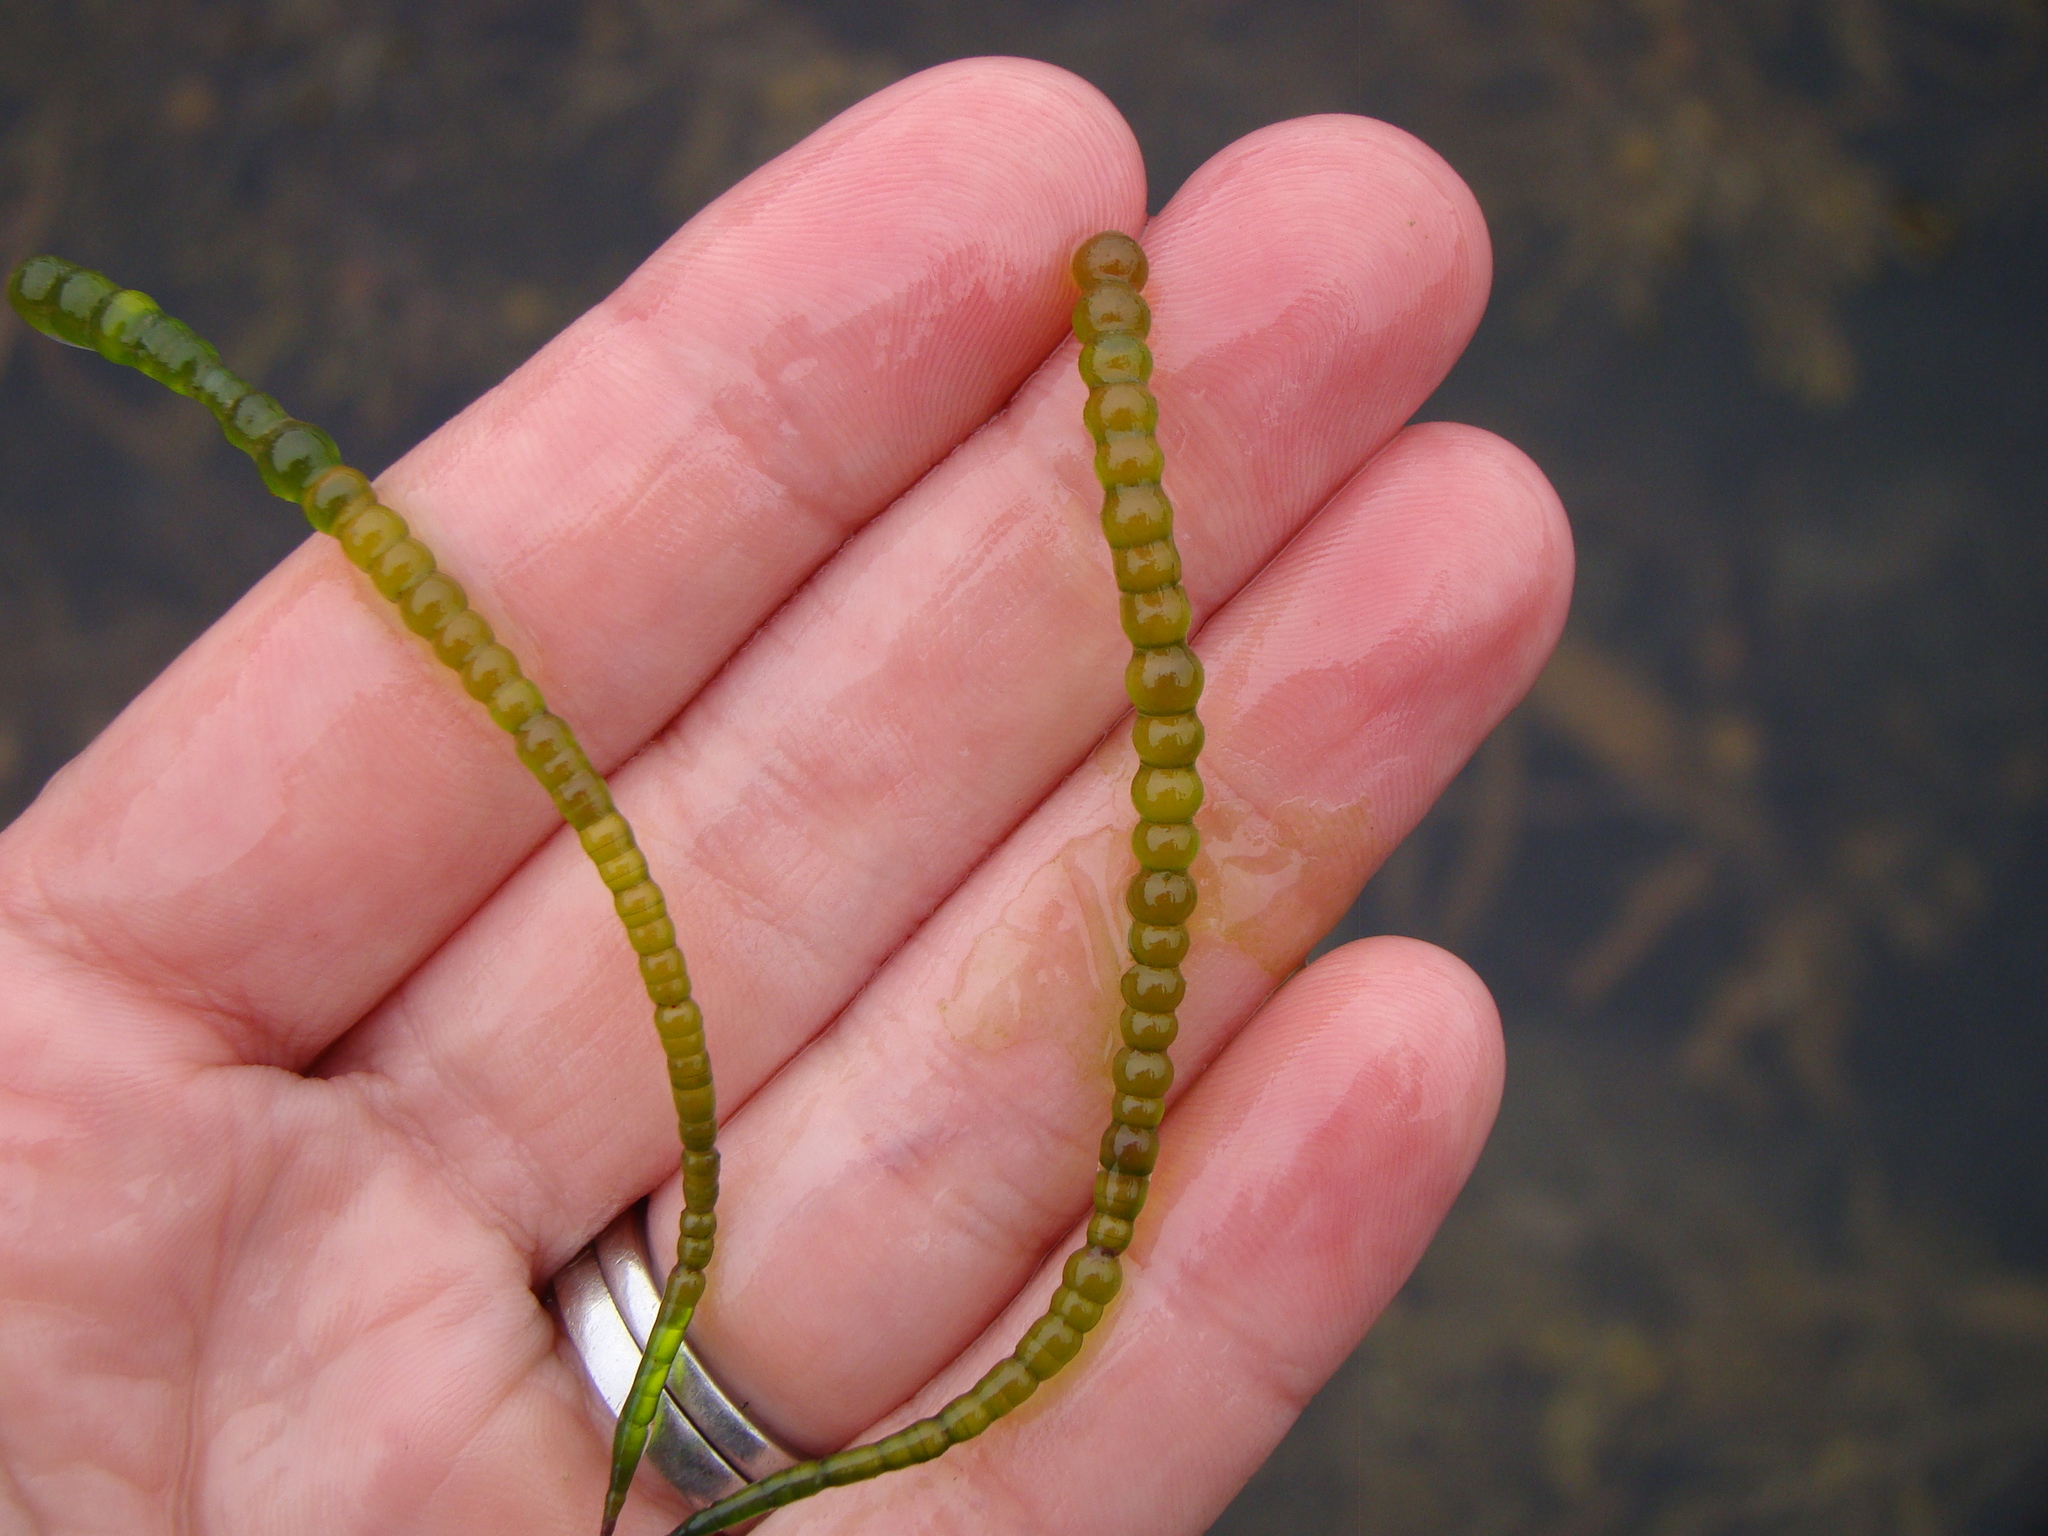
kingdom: Plantae
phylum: Chlorophyta
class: Ulvophyceae
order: Cladophorales
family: Cladophoraceae
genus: Chaetomorpha
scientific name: Chaetomorpha coliformis
